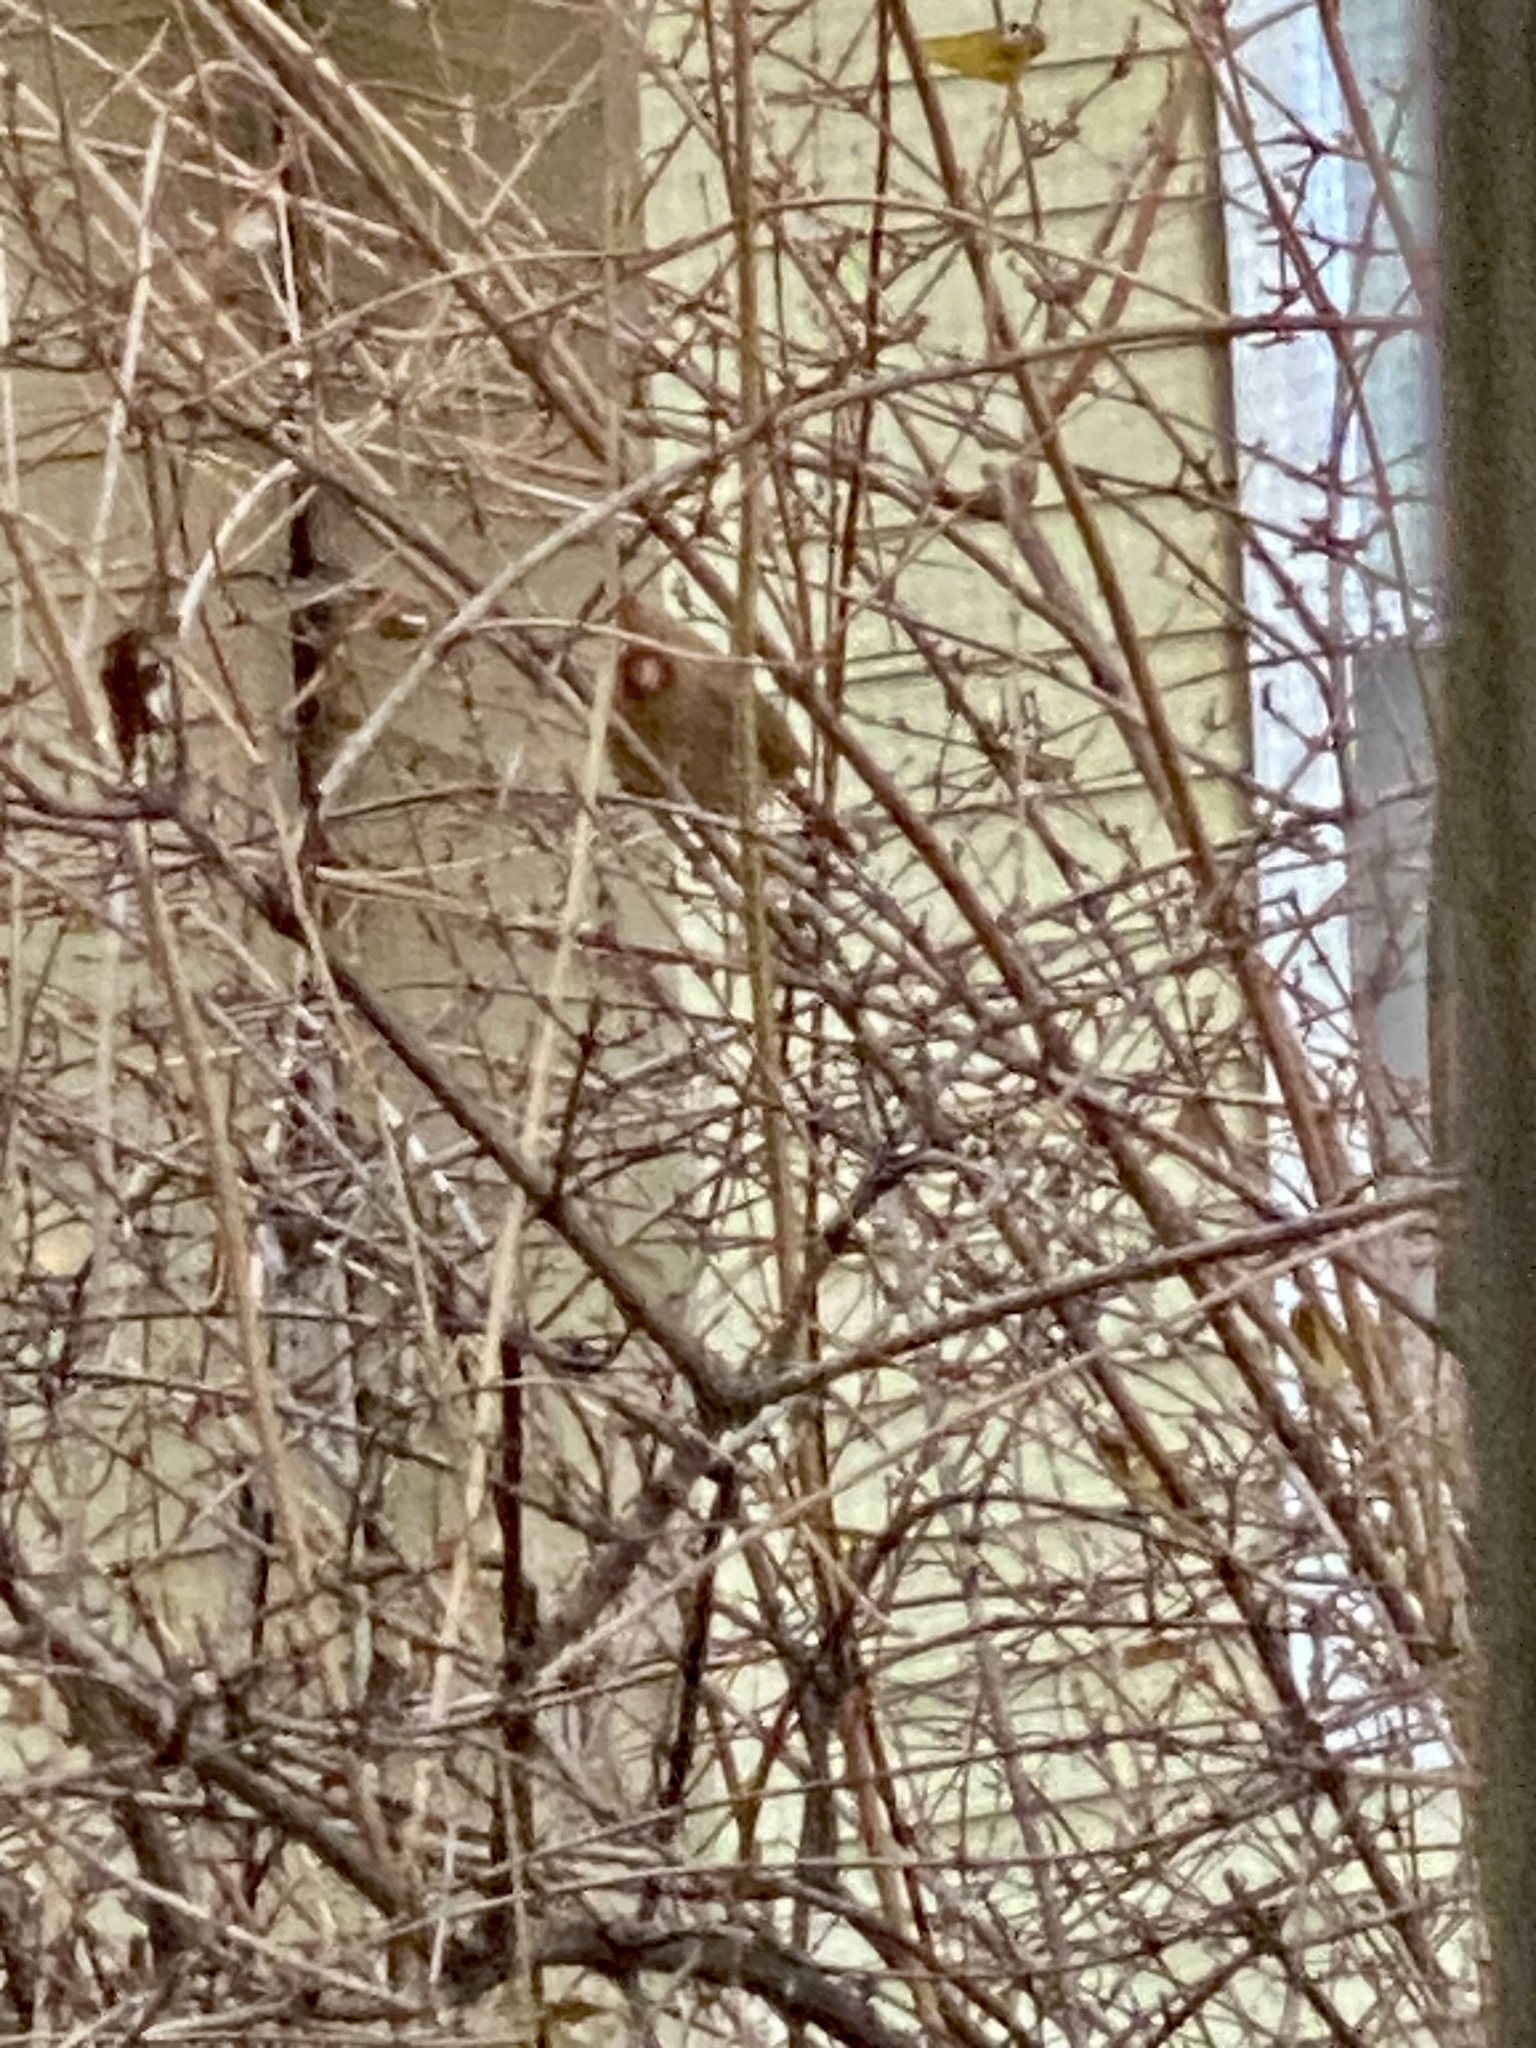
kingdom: Animalia
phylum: Chordata
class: Aves
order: Passeriformes
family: Cardinalidae
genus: Cardinalis
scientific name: Cardinalis cardinalis
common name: Northern cardinal
